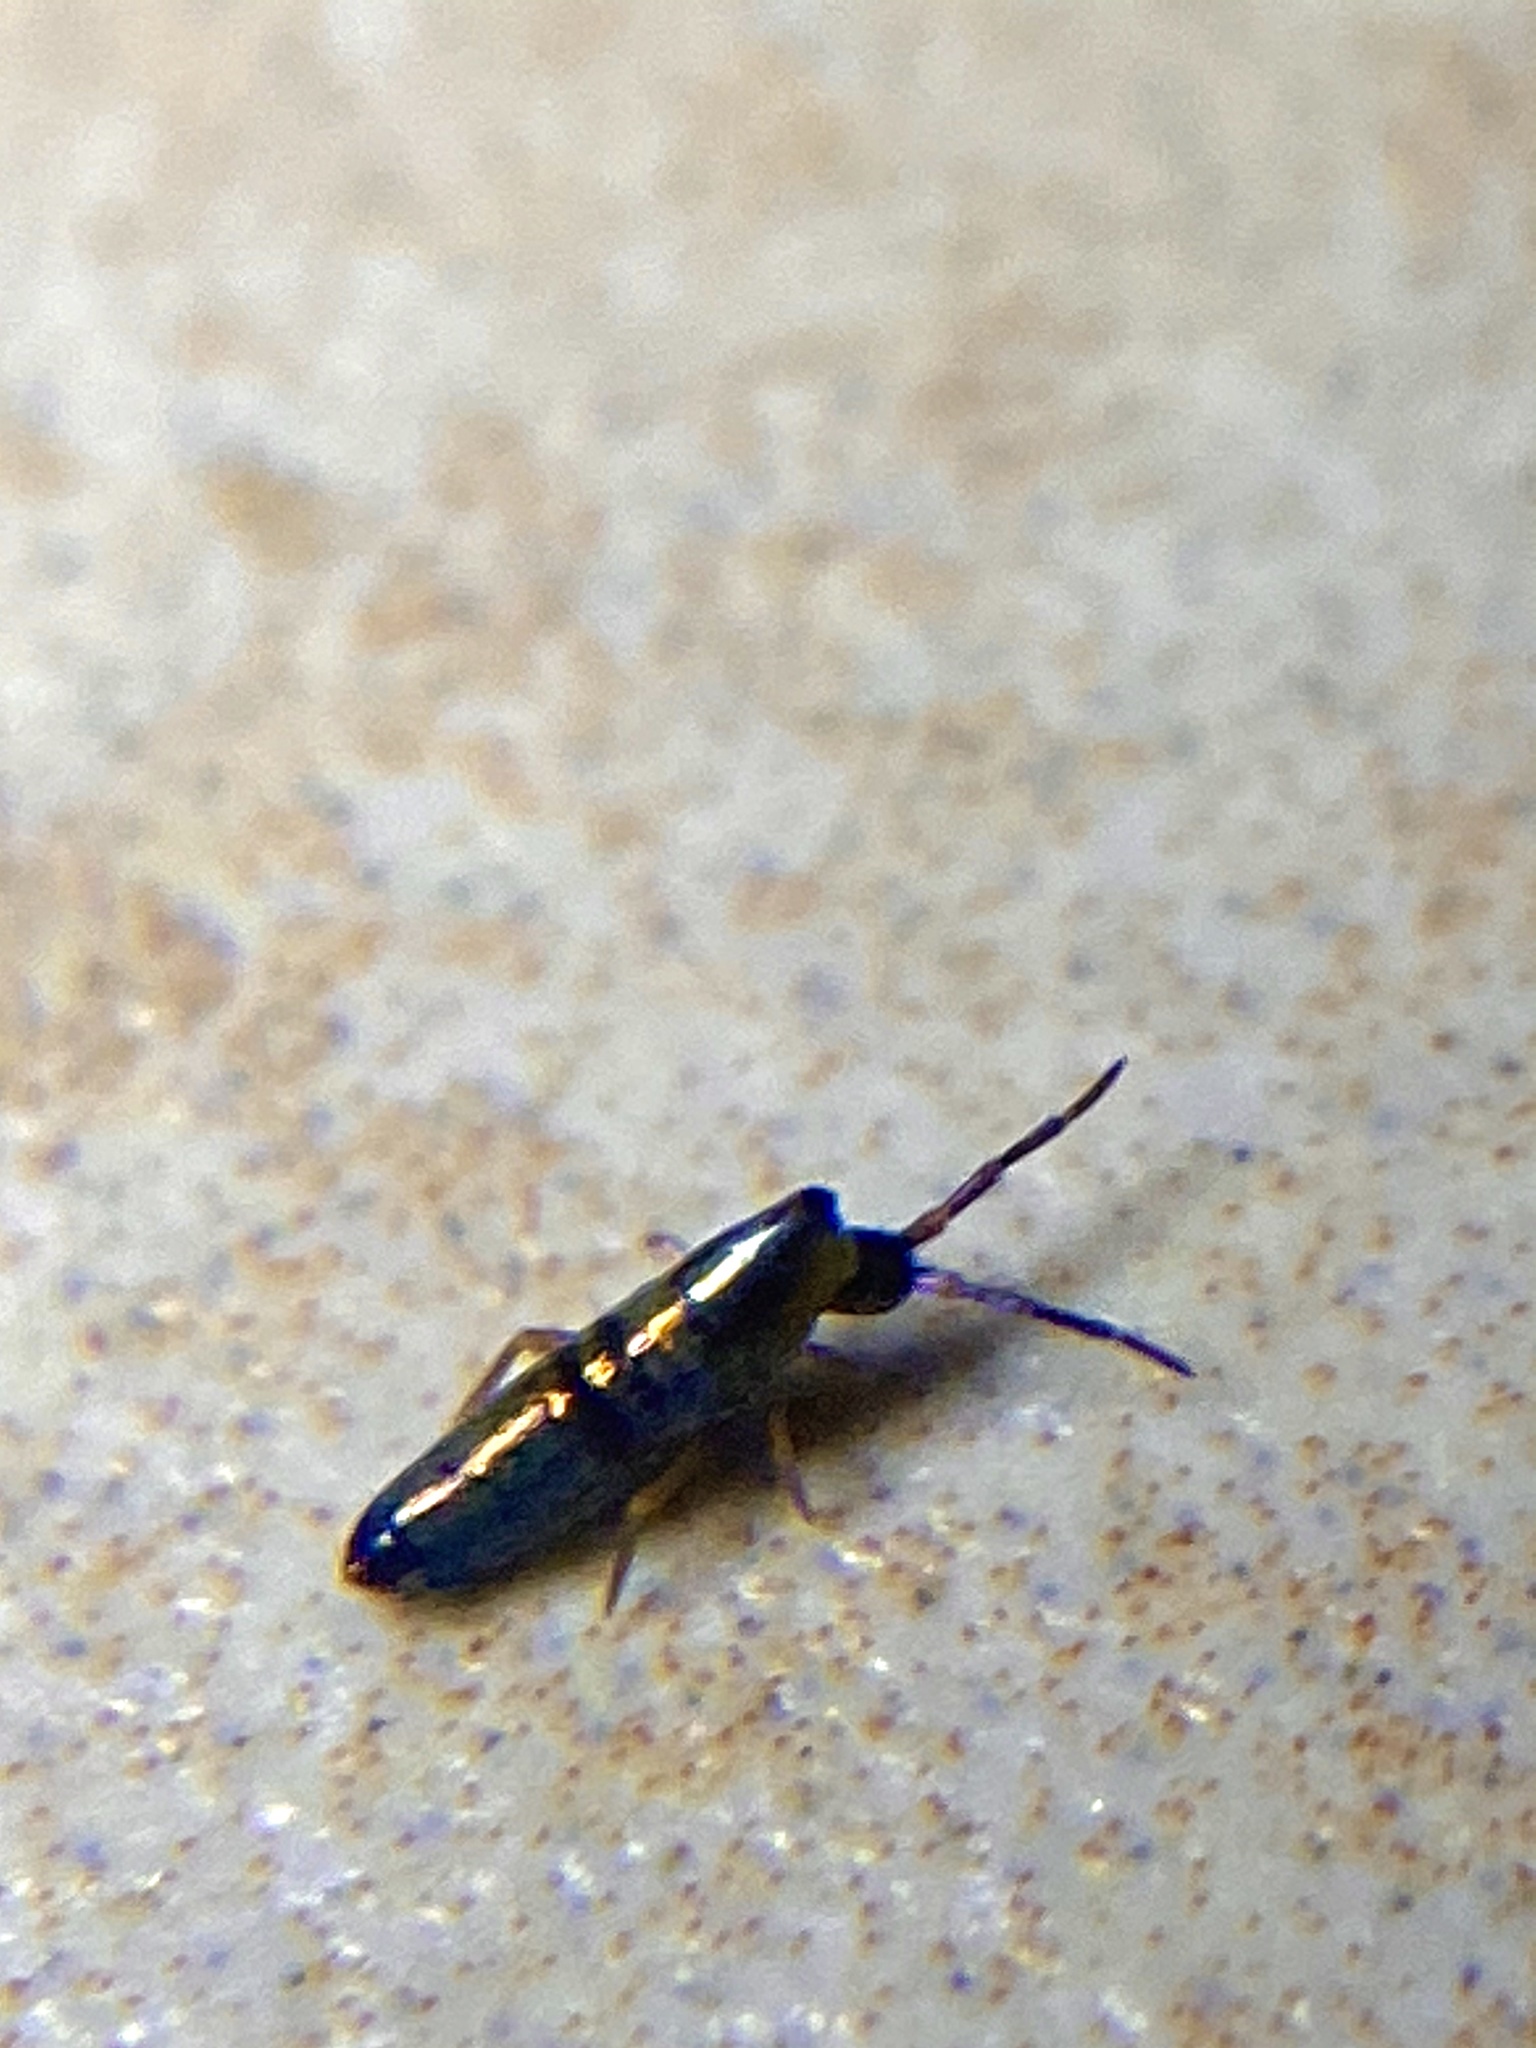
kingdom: Animalia
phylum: Arthropoda
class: Collembola
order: Entomobryomorpha
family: Entomobryidae
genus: Lepidocyrtus
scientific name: Lepidocyrtus paradoxus
